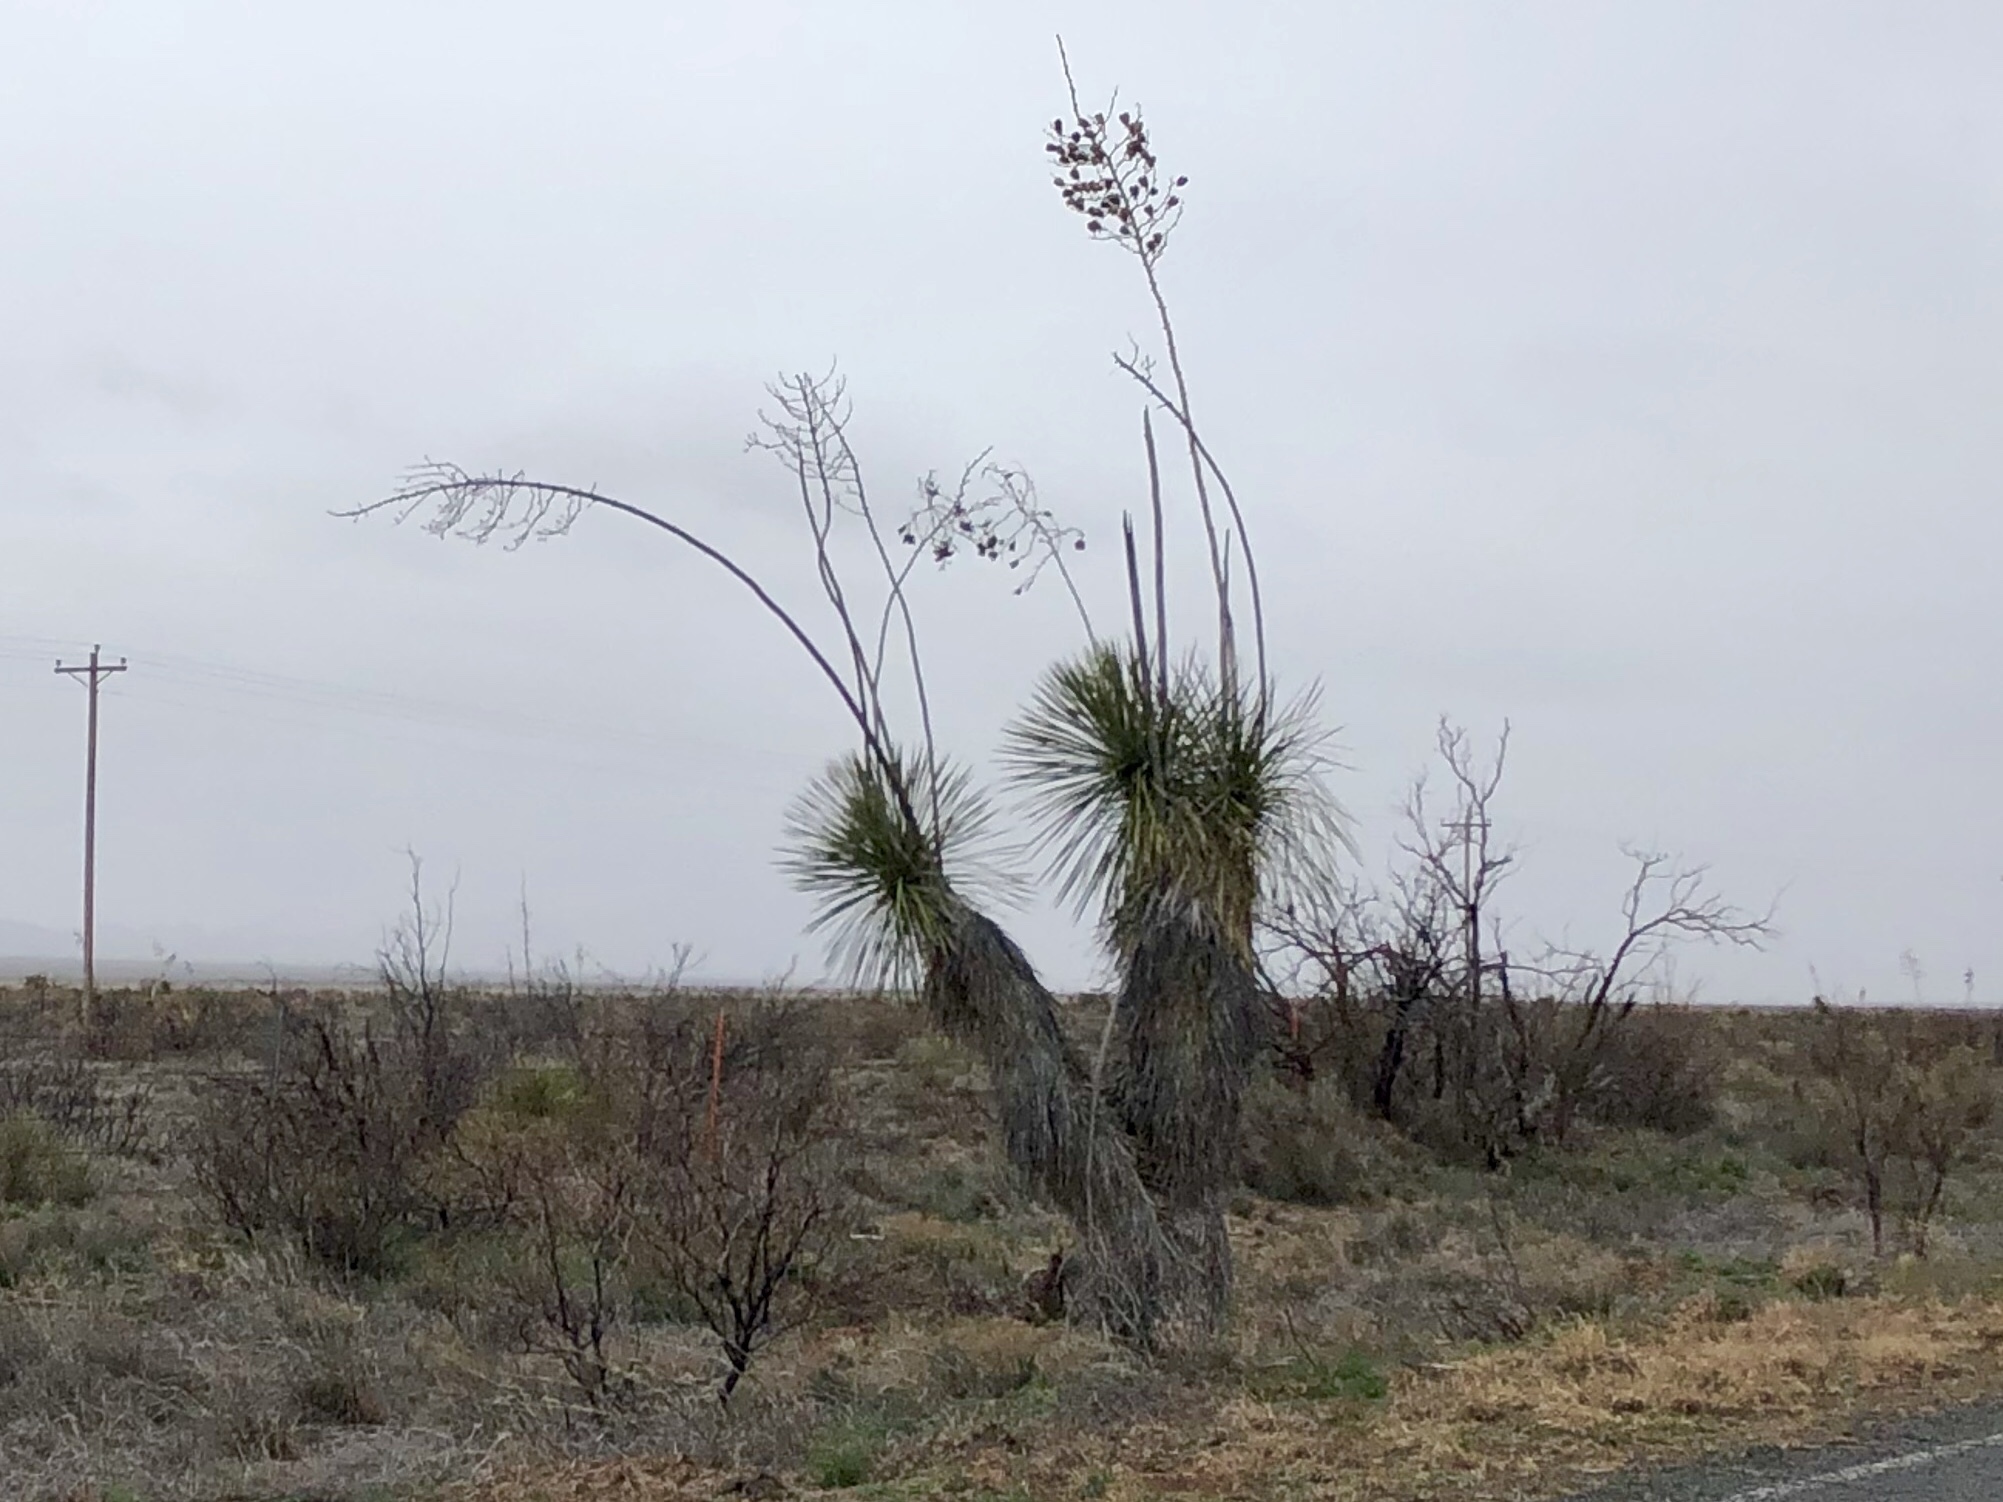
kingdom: Plantae
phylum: Tracheophyta
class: Liliopsida
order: Asparagales
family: Asparagaceae
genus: Yucca
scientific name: Yucca elata
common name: Palmella
